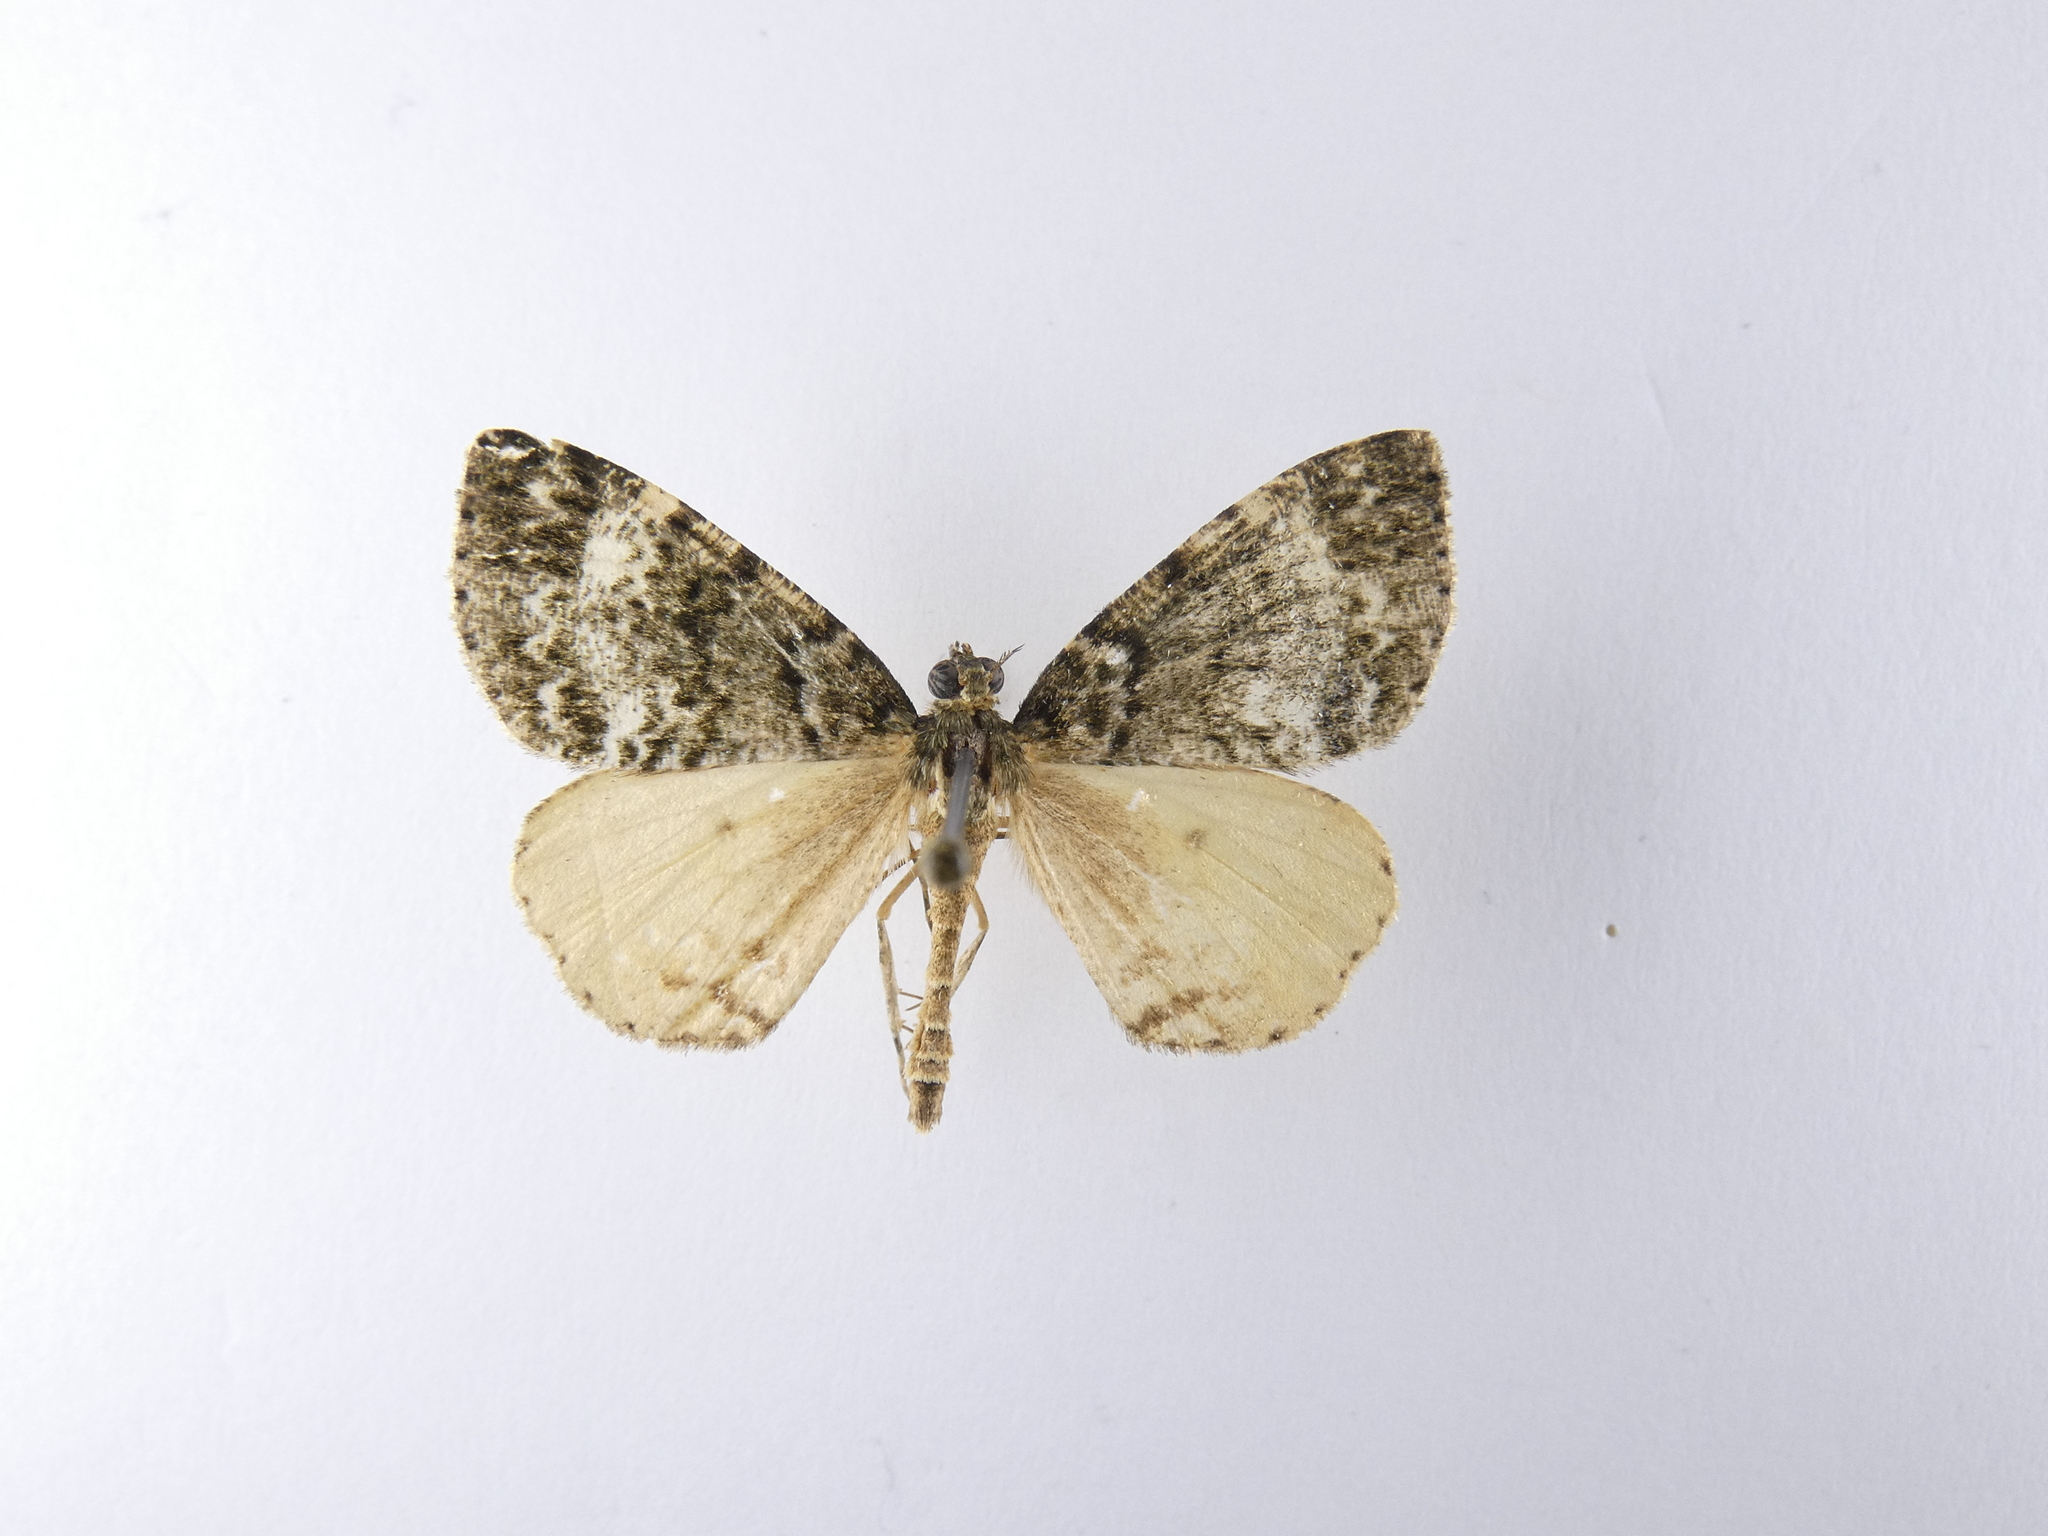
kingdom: Animalia
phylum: Arthropoda
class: Insecta
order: Lepidoptera
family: Geometridae
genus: Pseudocoremia
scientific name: Pseudocoremia indistincta
